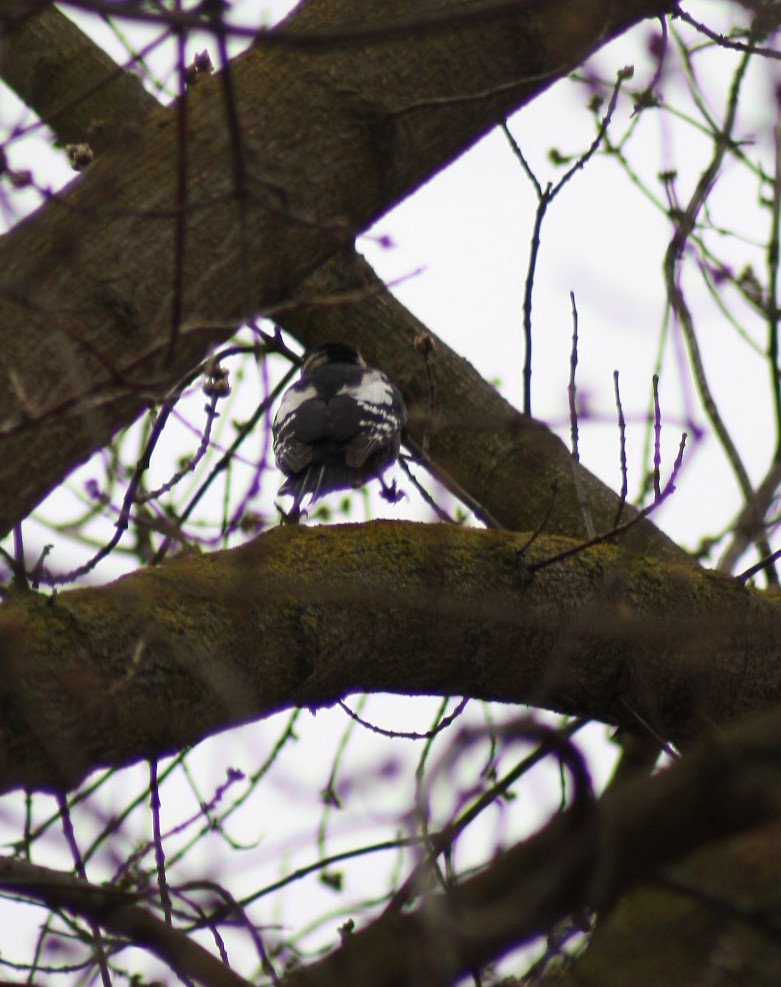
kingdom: Animalia
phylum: Chordata
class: Aves
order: Piciformes
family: Picidae
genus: Dendrocopos
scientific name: Dendrocopos major
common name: Great spotted woodpecker
